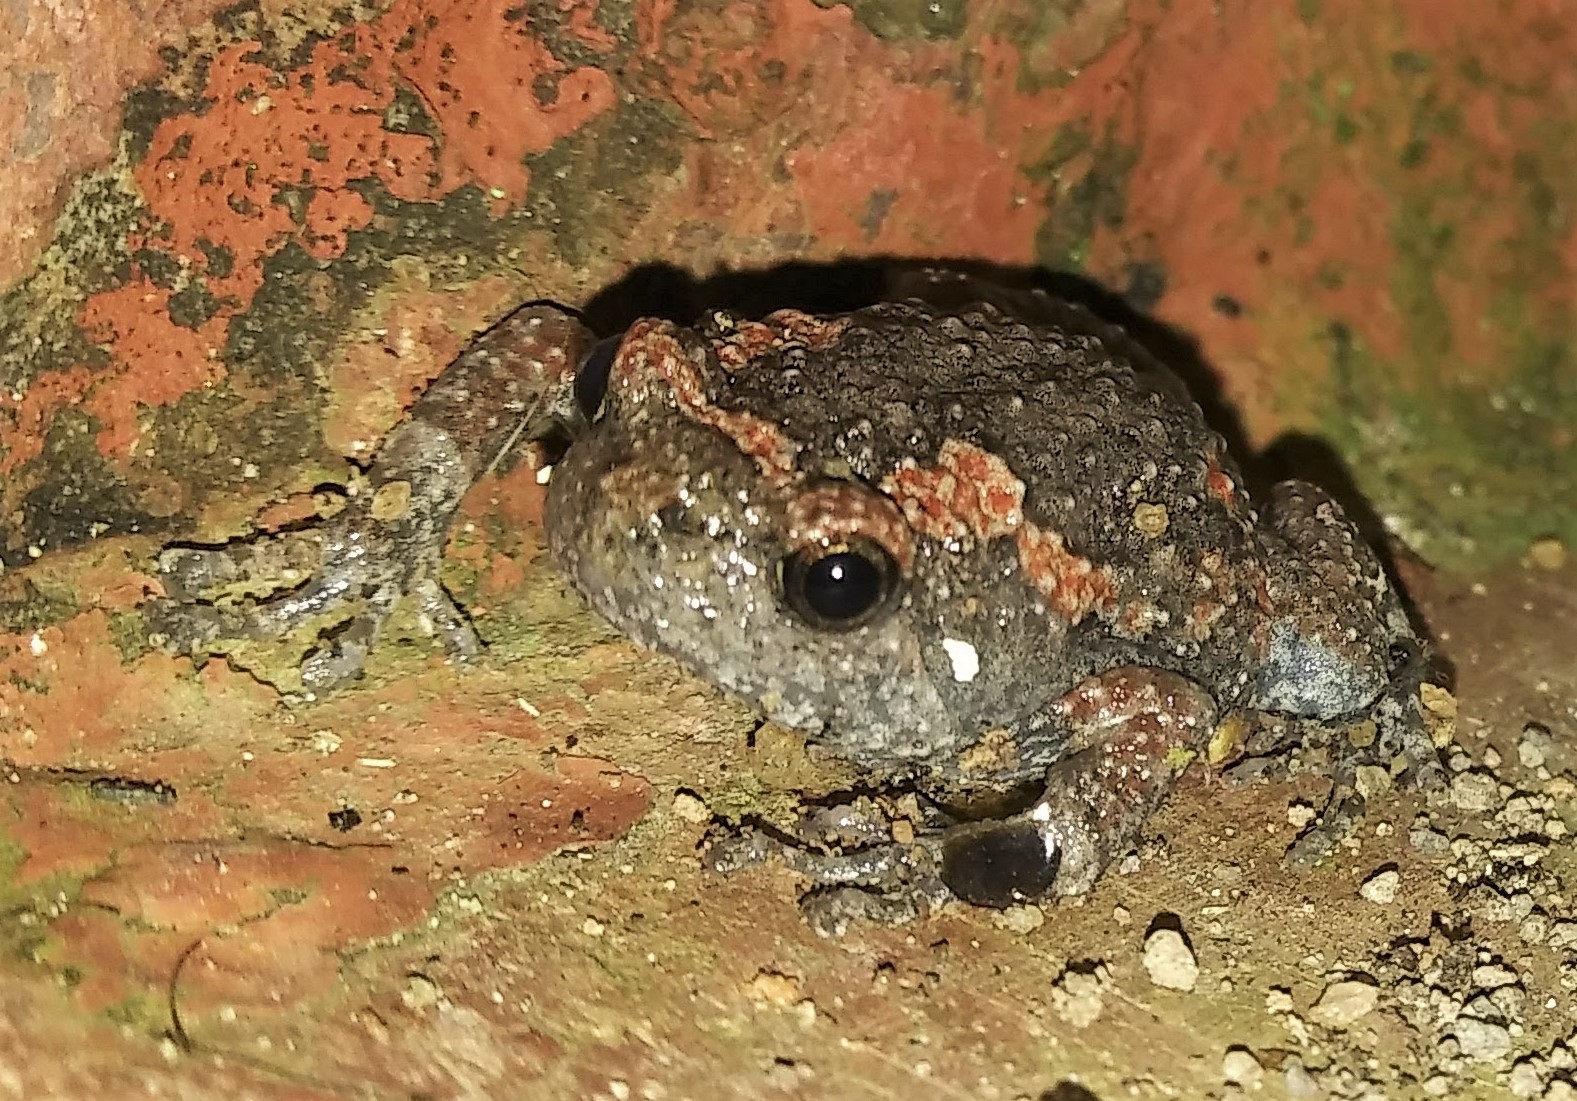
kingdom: Animalia
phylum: Chordata
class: Amphibia
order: Anura
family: Microhylidae
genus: Uperodon
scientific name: Uperodon taprobanicus
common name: Ceylon kaloula
